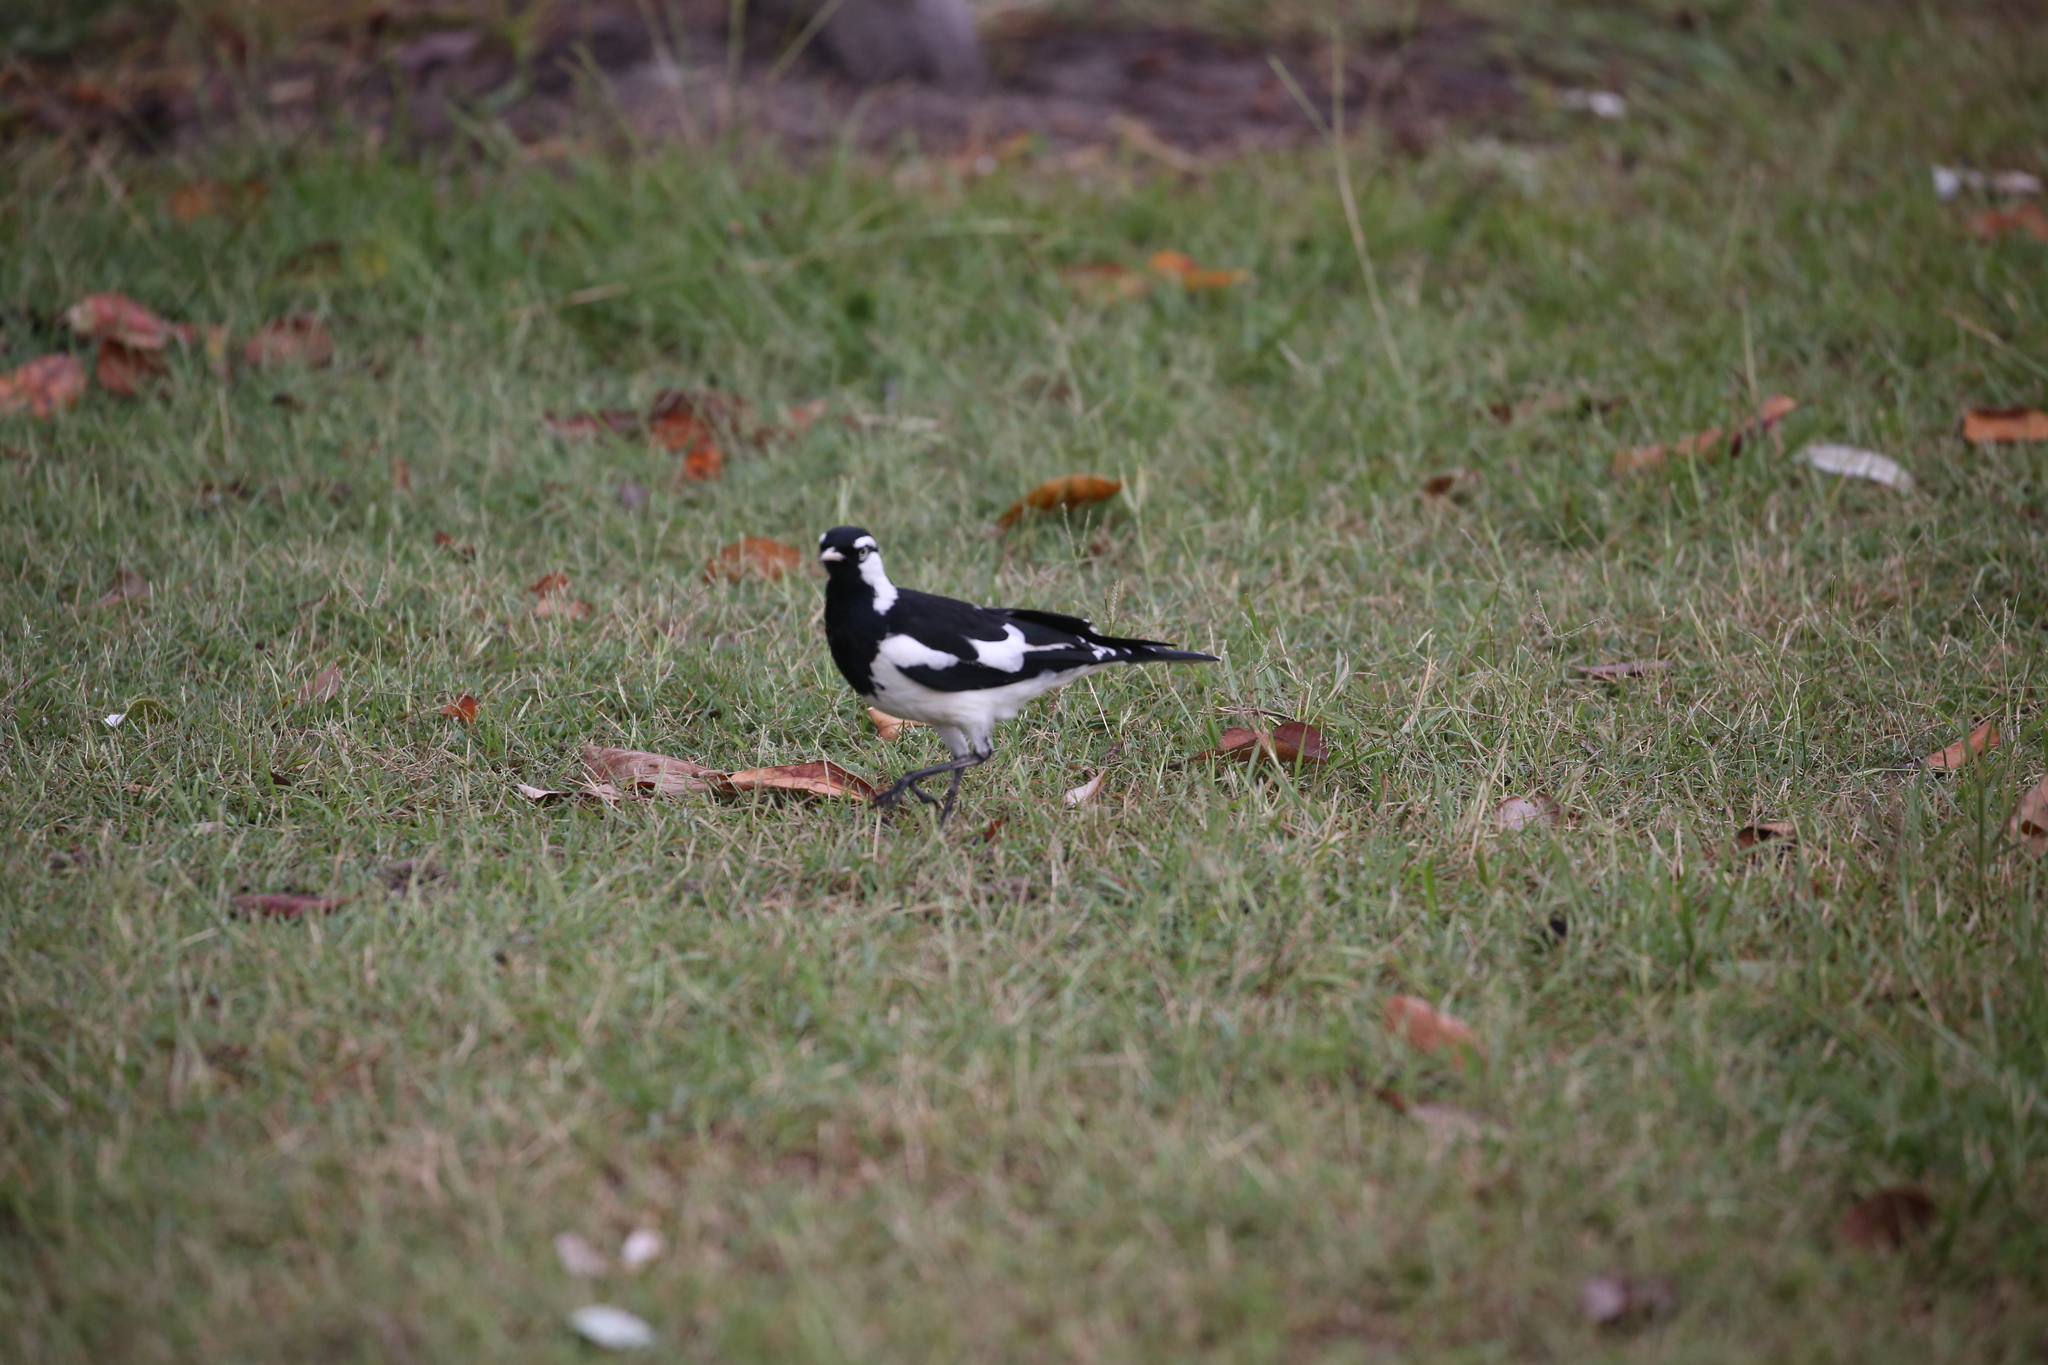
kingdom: Animalia
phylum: Chordata
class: Aves
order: Passeriformes
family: Monarchidae
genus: Grallina
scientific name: Grallina cyanoleuca
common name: Magpie-lark
